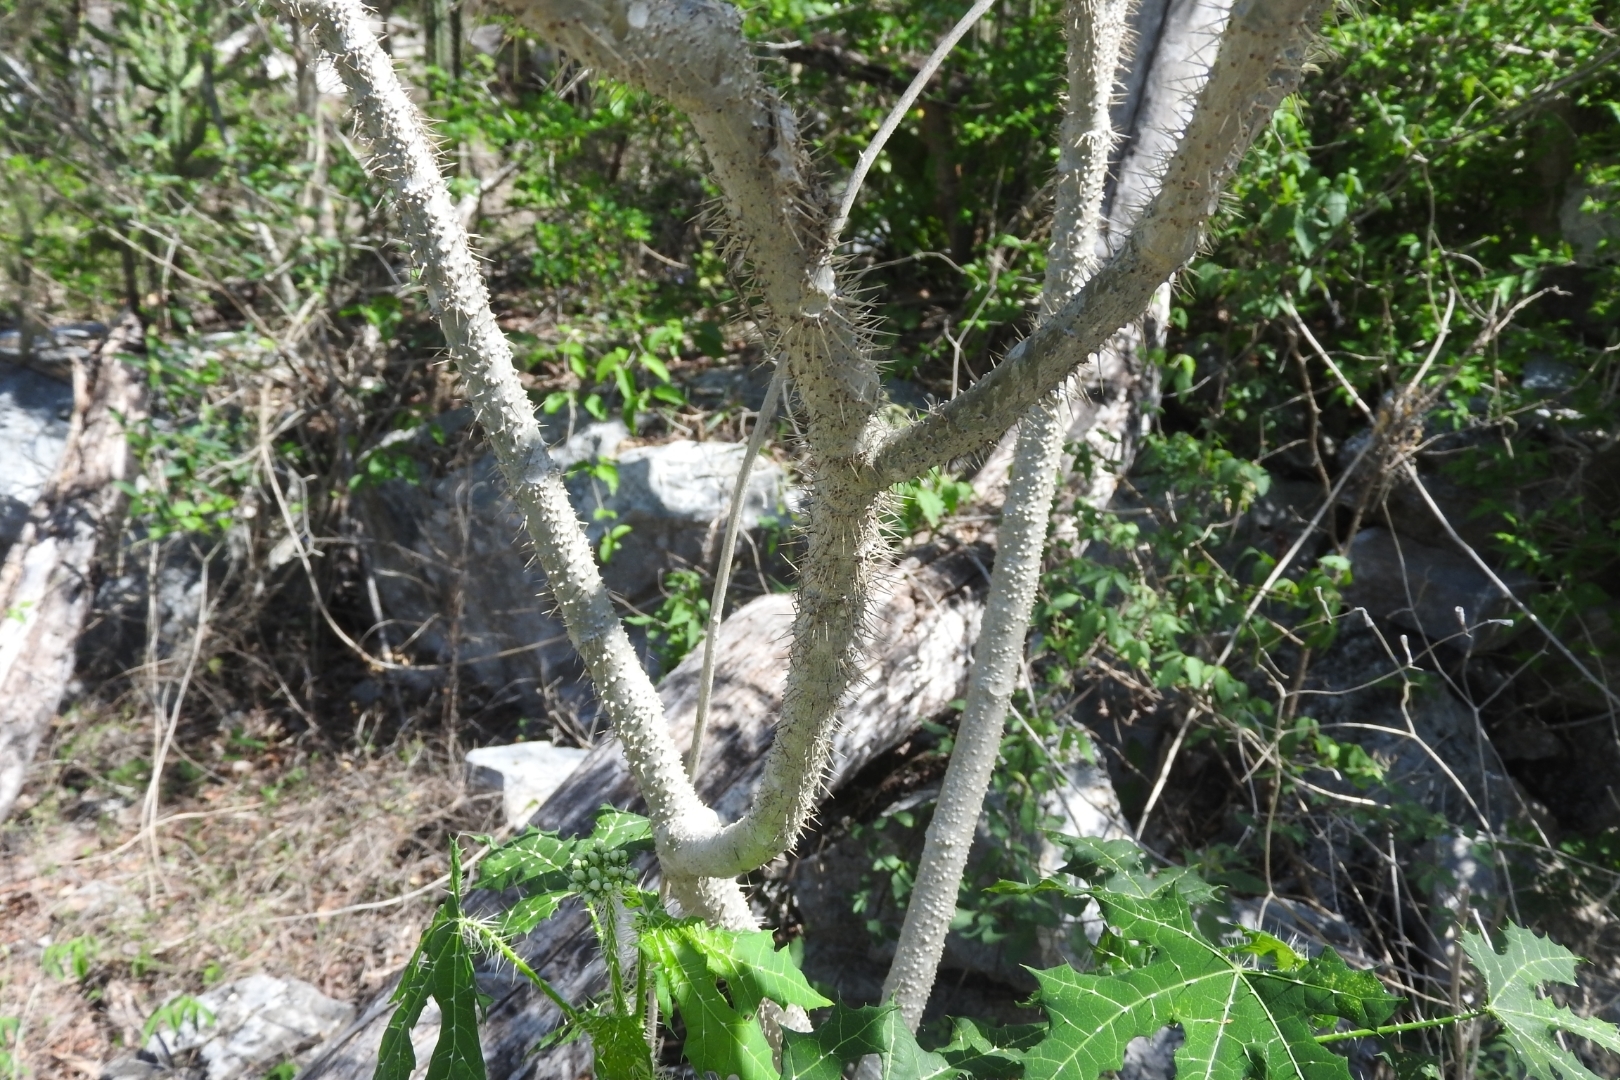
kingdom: Plantae
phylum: Tracheophyta
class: Magnoliopsida
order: Malpighiales
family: Euphorbiaceae
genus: Cnidoscolus
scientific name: Cnidoscolus souzae
